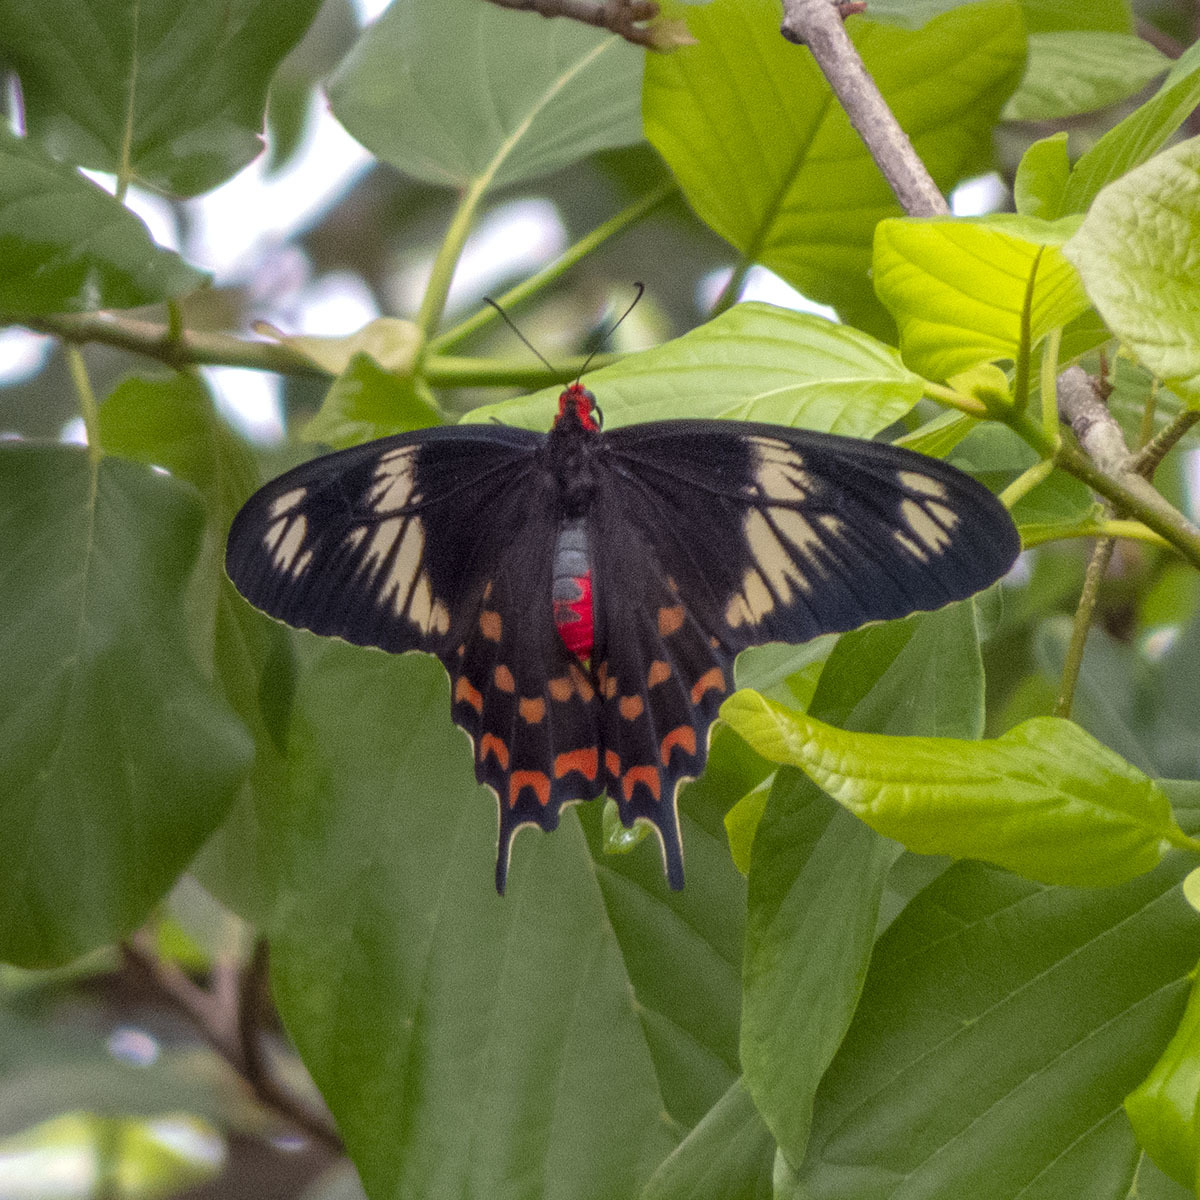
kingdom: Animalia
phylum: Arthropoda
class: Insecta
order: Lepidoptera
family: Papilionidae
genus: Pachliopta
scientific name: Pachliopta hector
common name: Crimson rose
